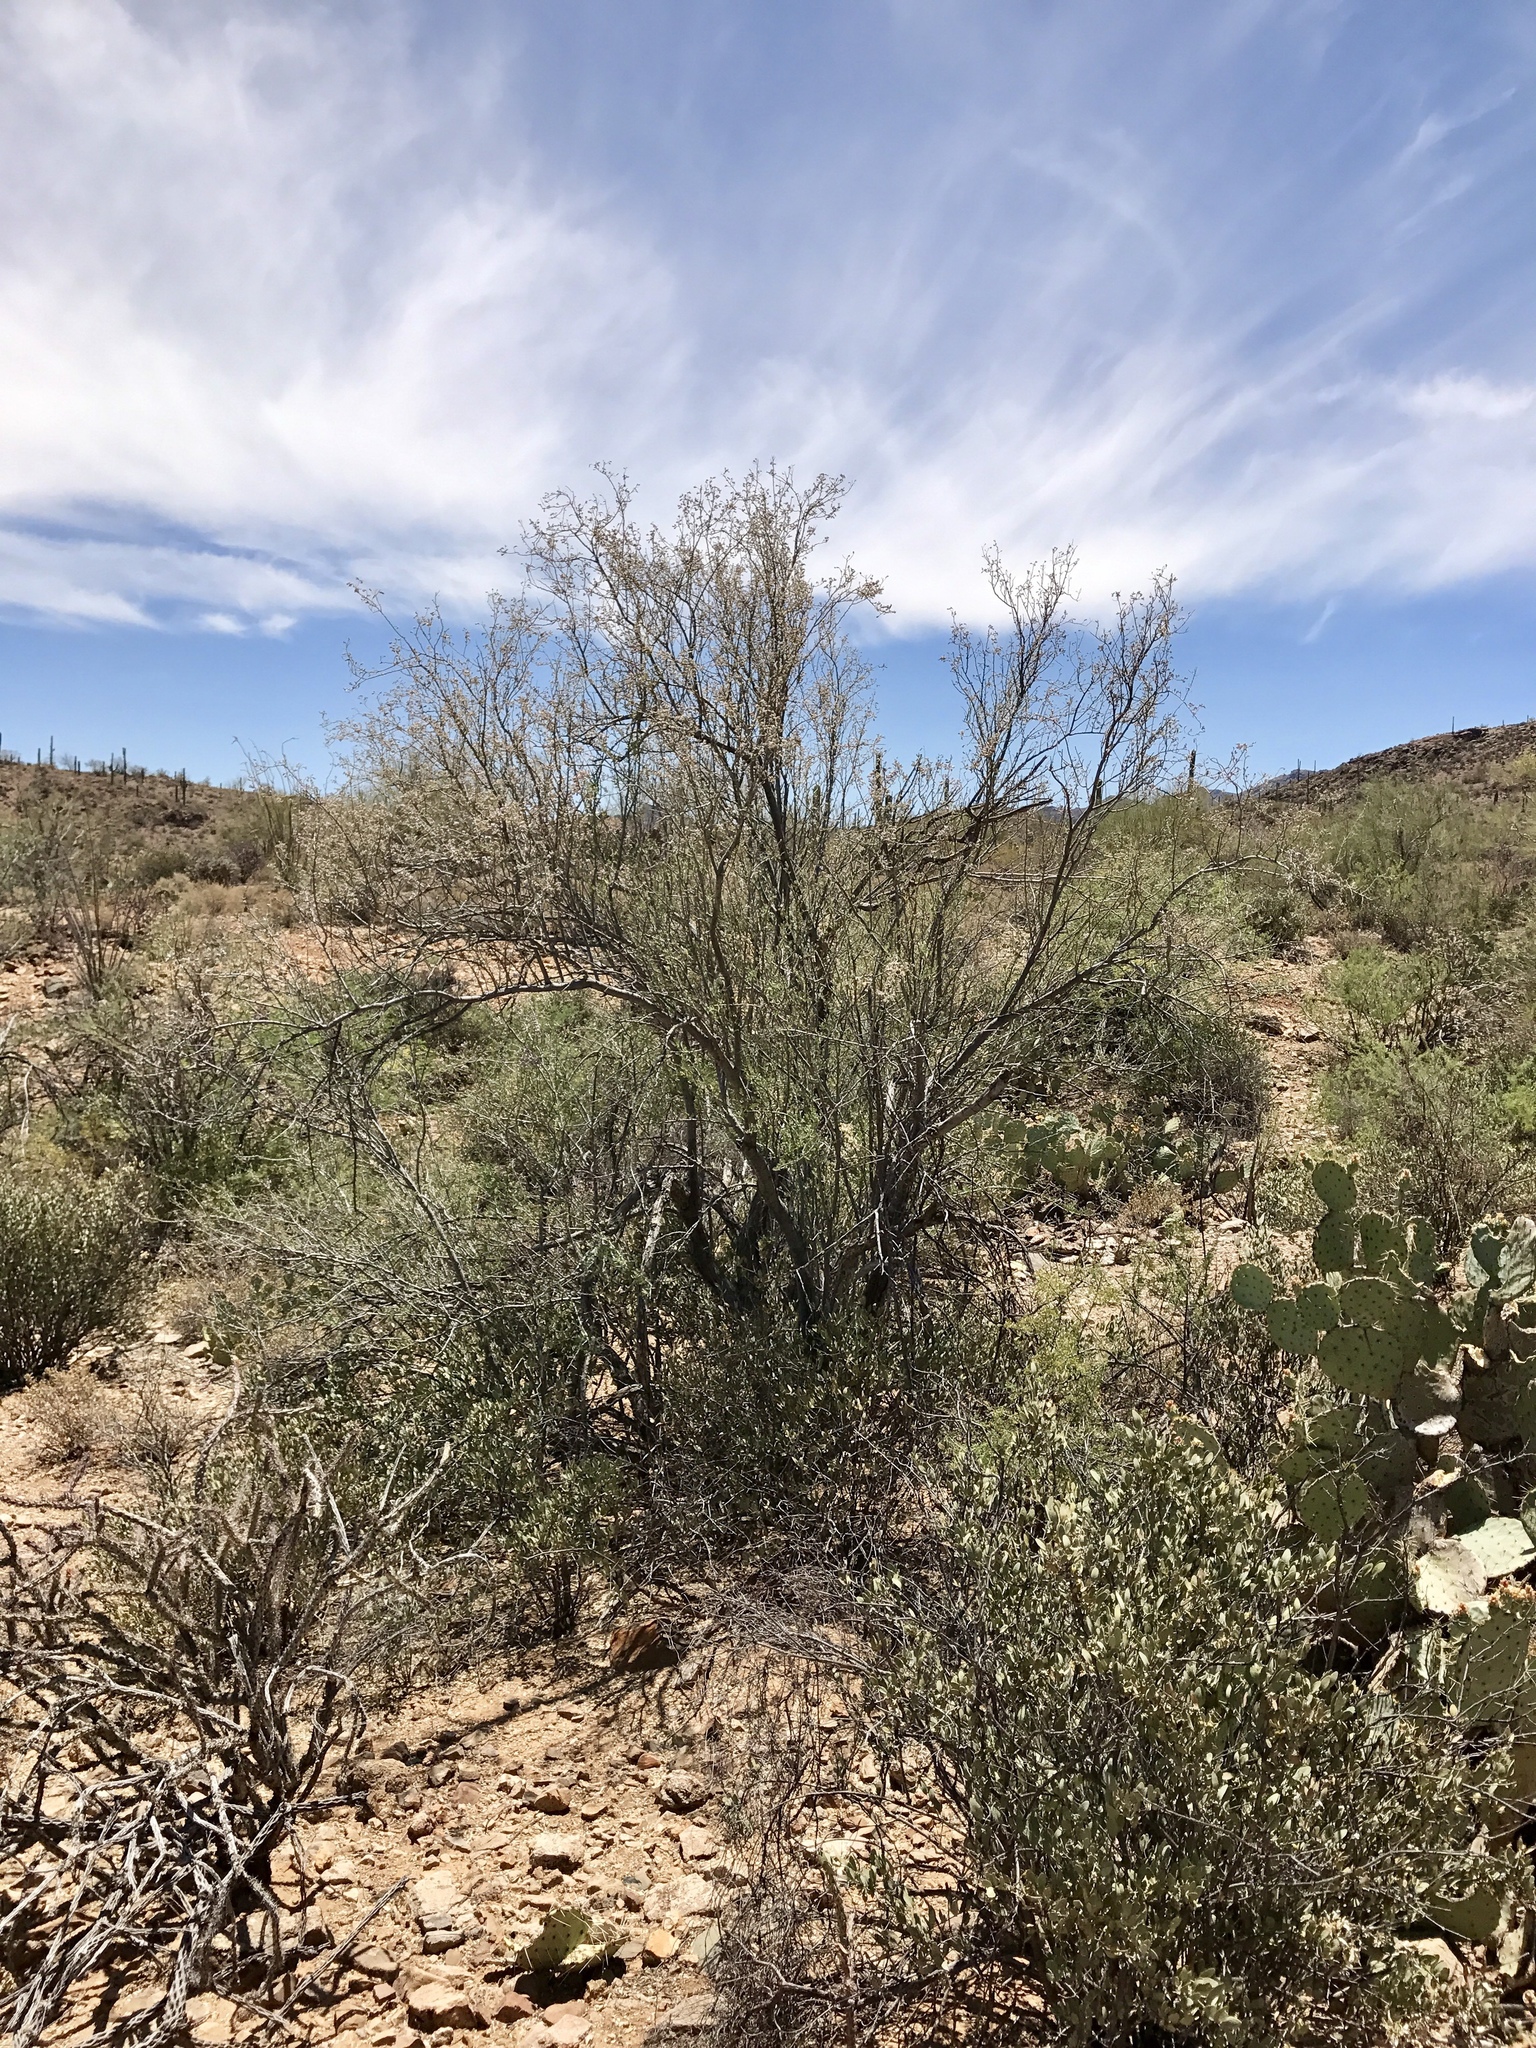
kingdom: Plantae
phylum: Tracheophyta
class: Magnoliopsida
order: Fabales
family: Fabaceae
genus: Olneya
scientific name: Olneya tesota
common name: Desert ironwood
